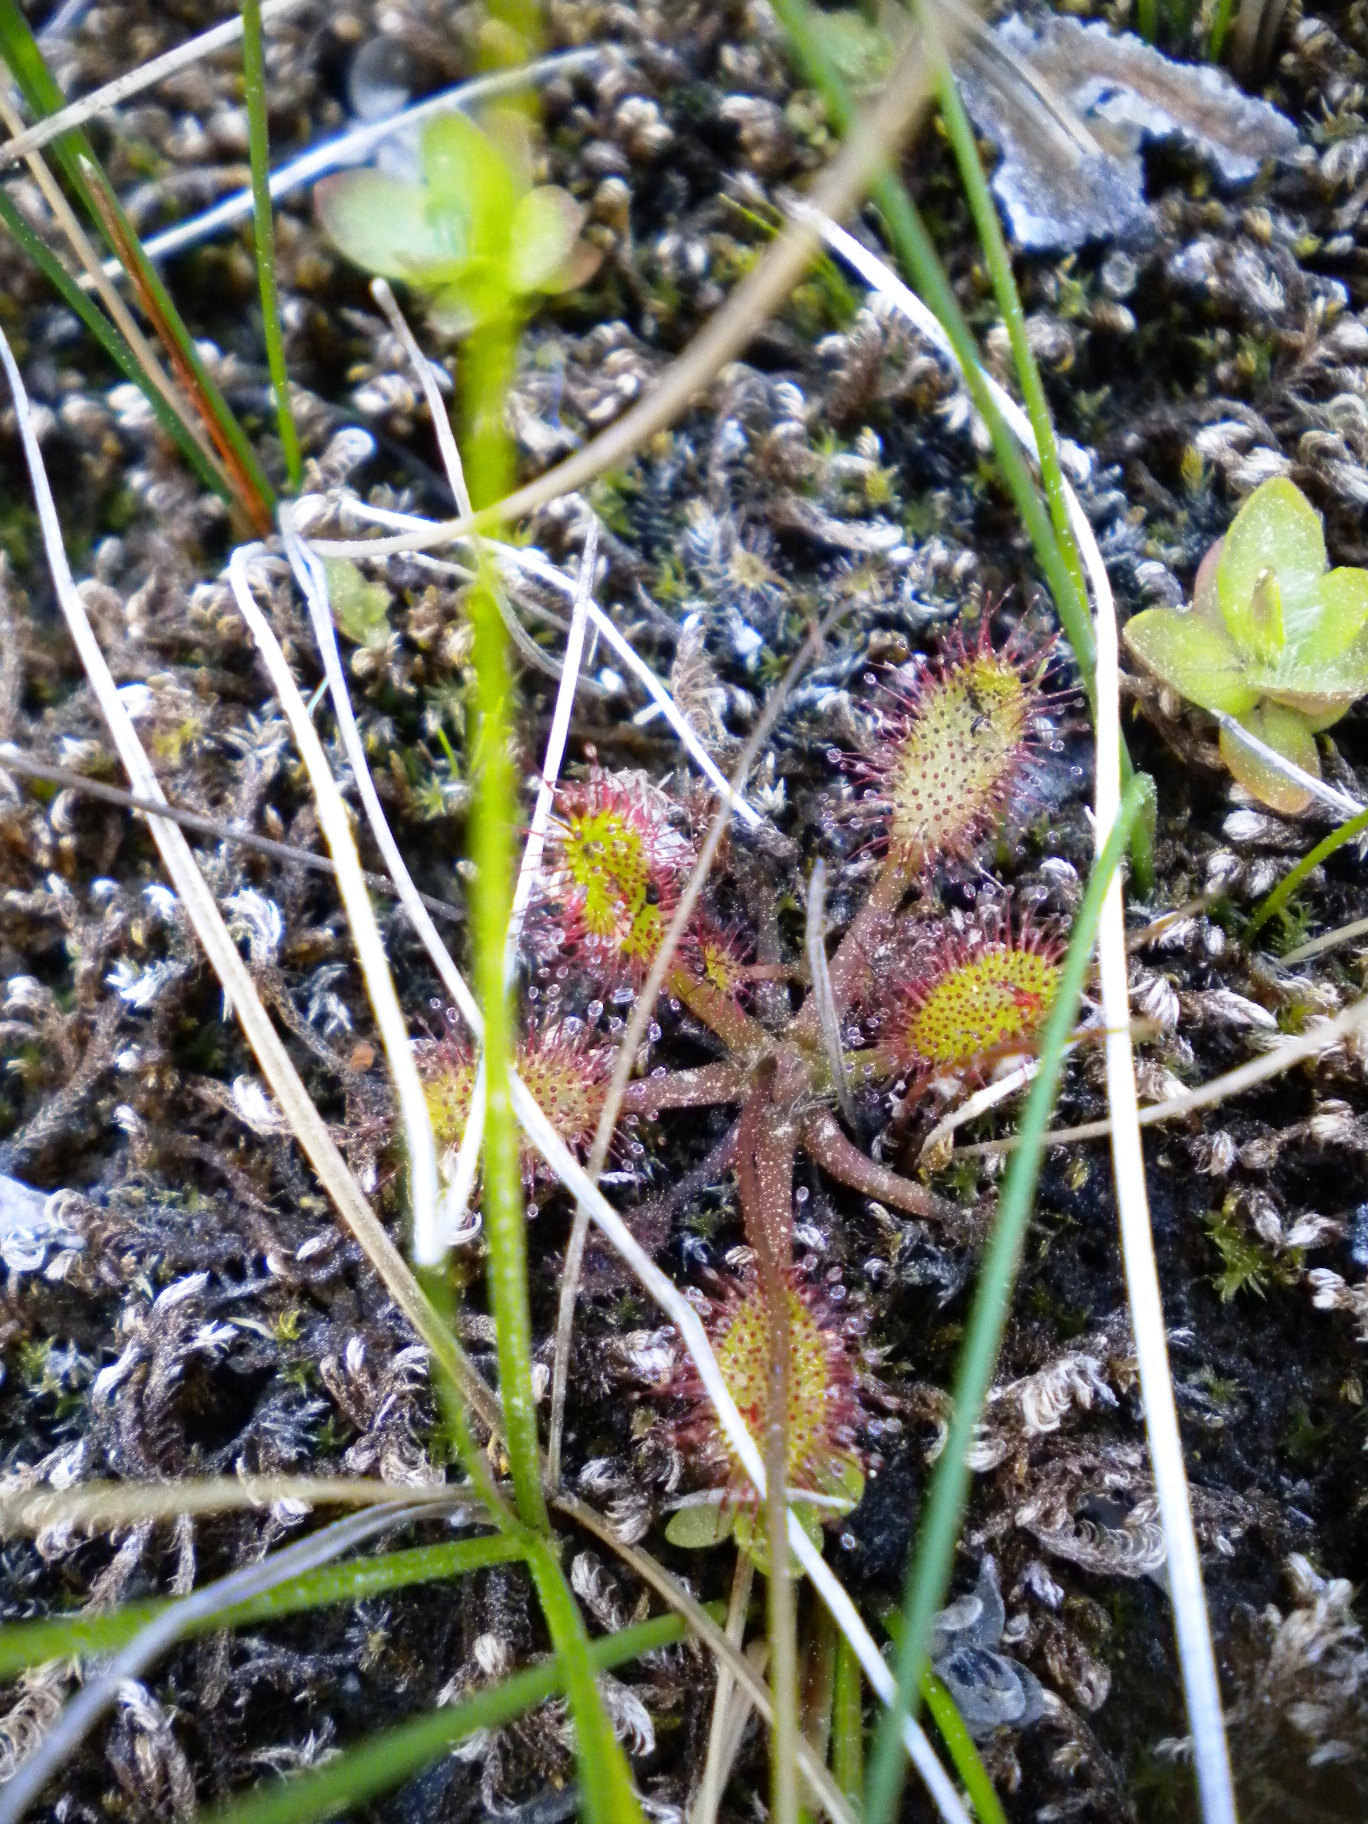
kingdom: Plantae
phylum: Tracheophyta
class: Magnoliopsida
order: Caryophyllales
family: Droseraceae
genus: Drosera
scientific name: Drosera anglica
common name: Great sundew
